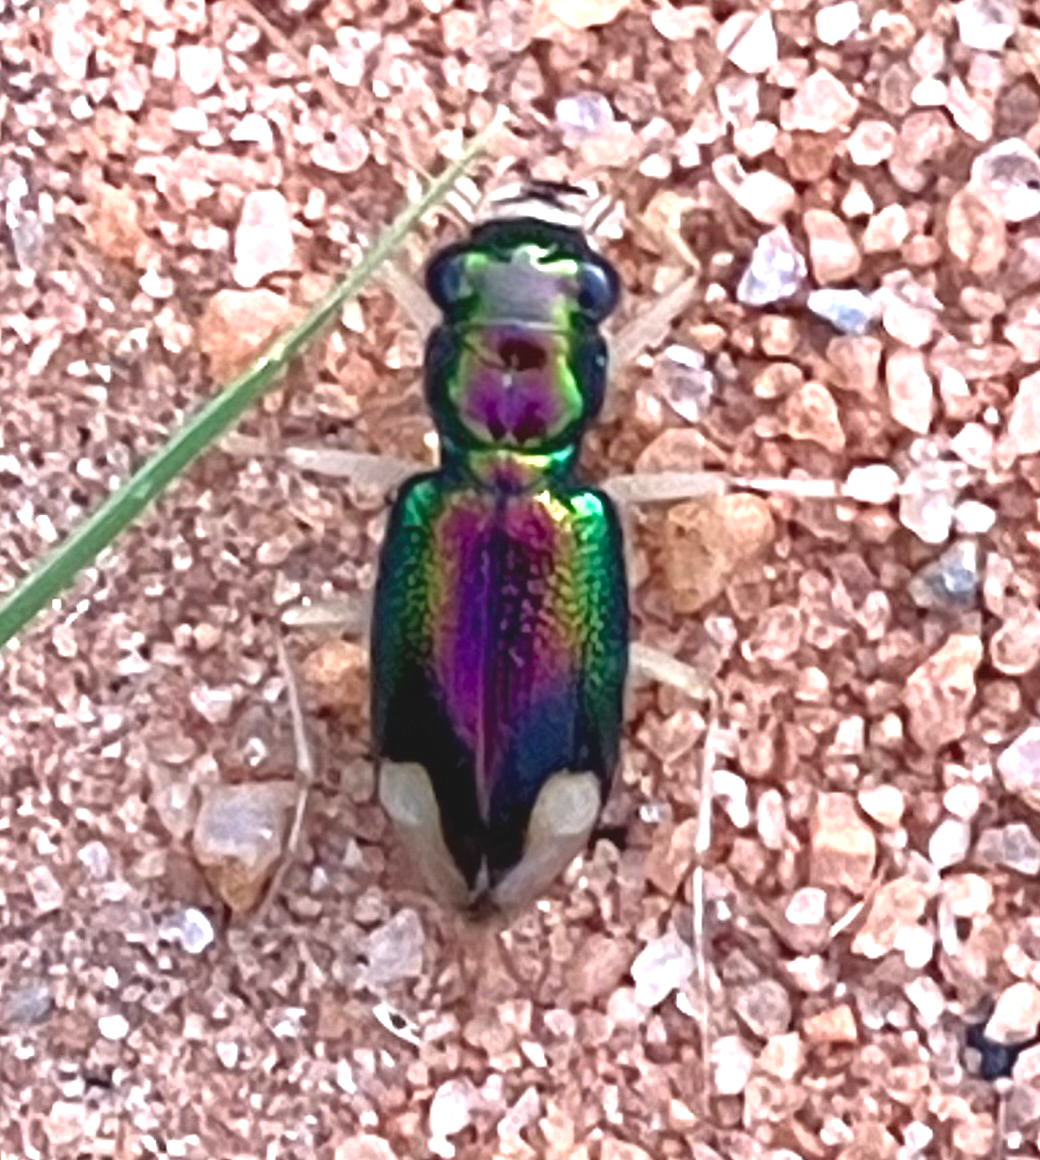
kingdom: Animalia
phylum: Arthropoda
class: Insecta
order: Coleoptera
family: Carabidae
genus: Tetracha
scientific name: Tetracha carolina
